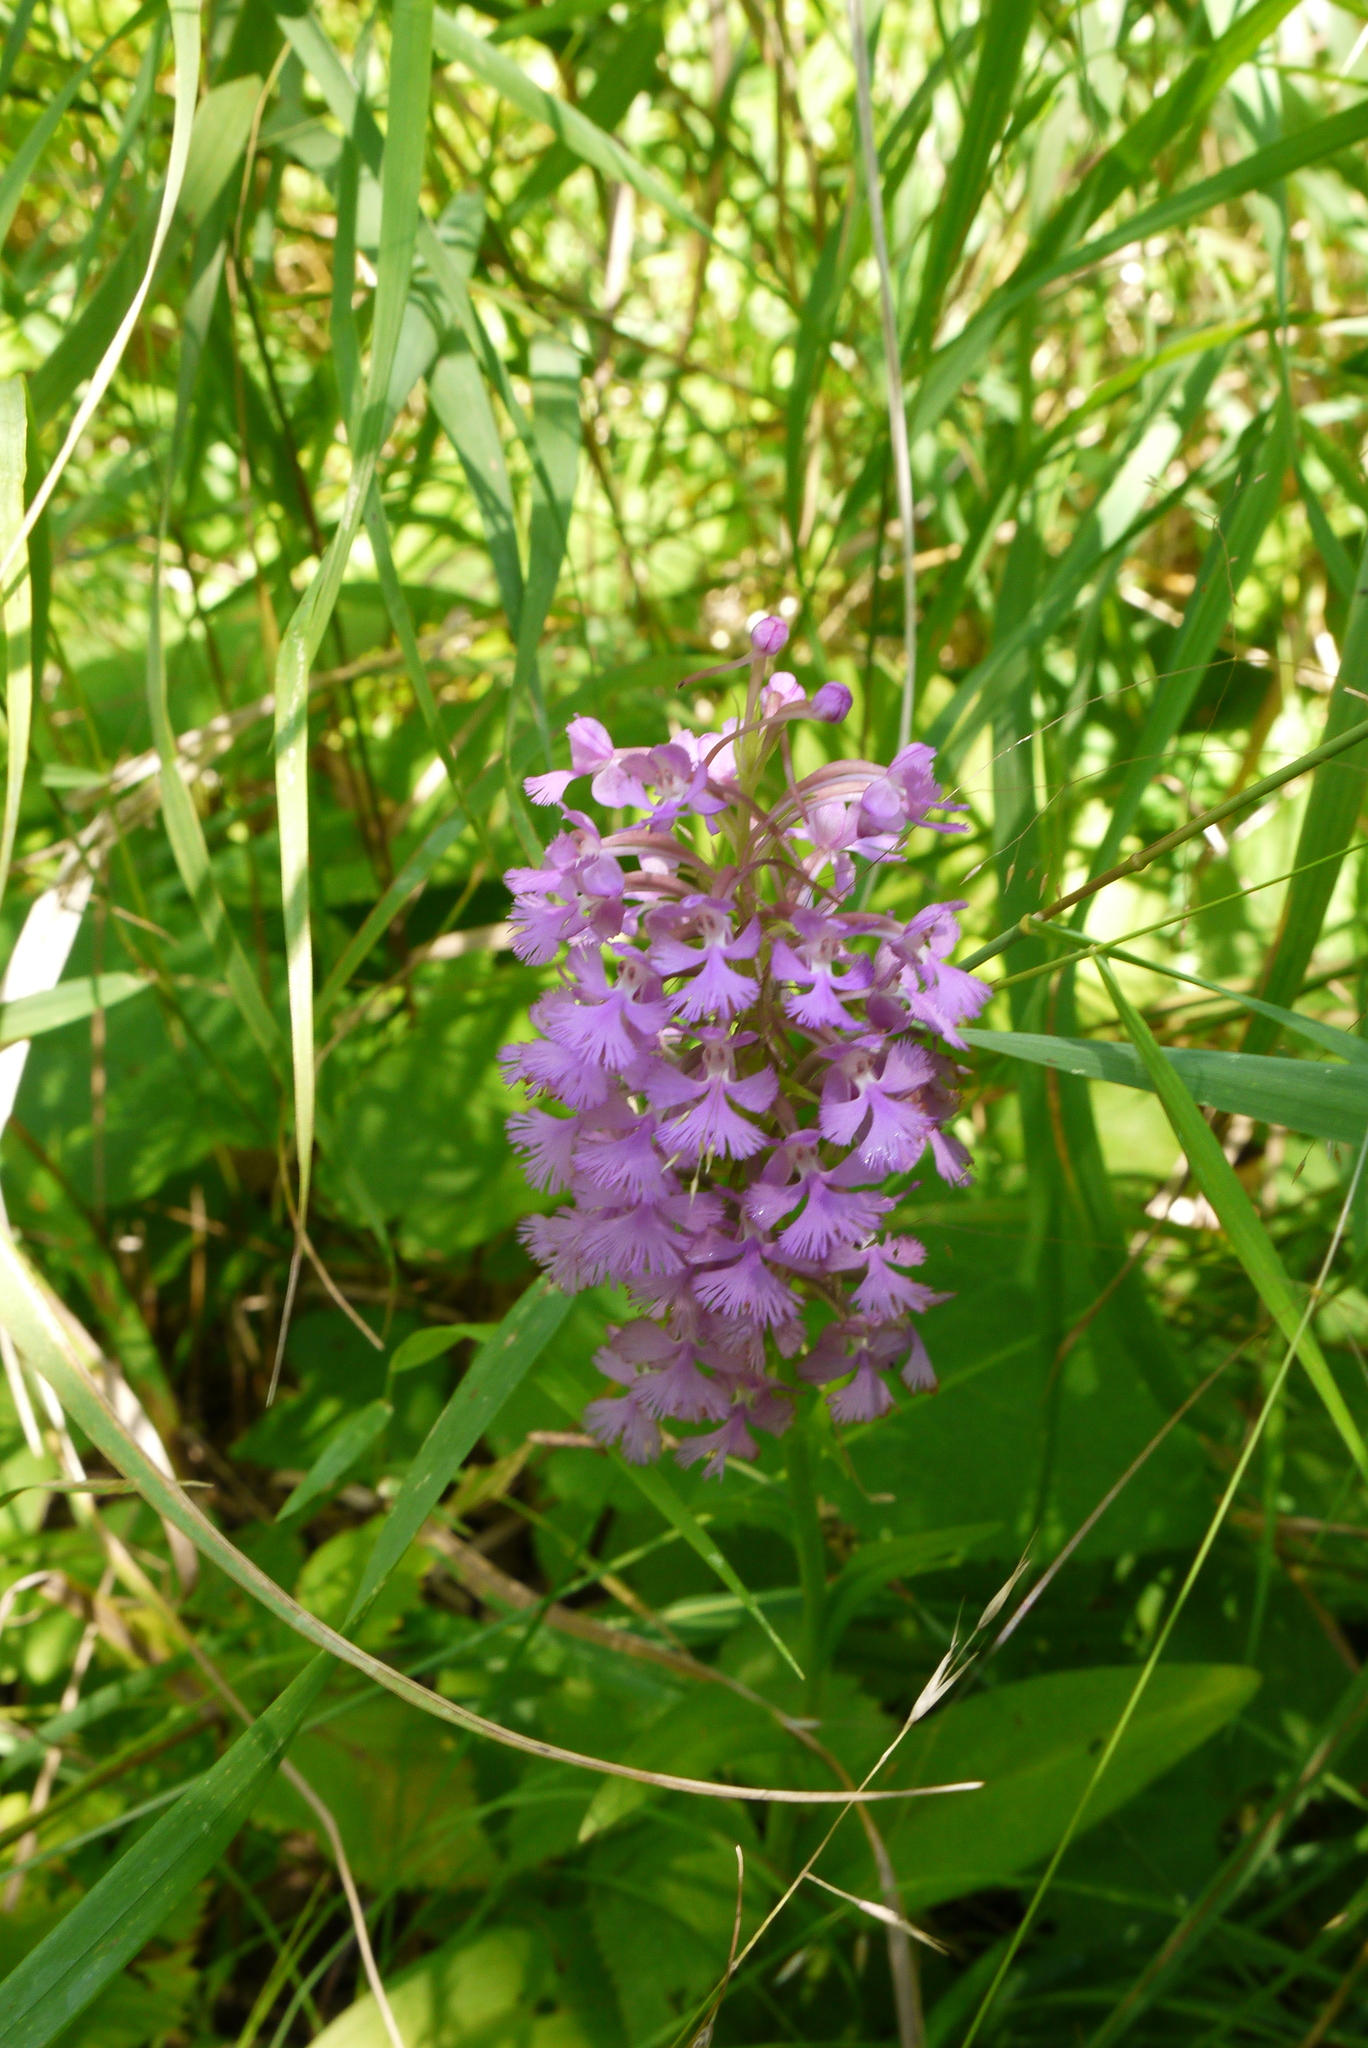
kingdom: Plantae
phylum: Tracheophyta
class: Liliopsida
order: Asparagales
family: Orchidaceae
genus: Platanthera
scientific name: Platanthera psycodes
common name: Lesser purple fringed orchid
